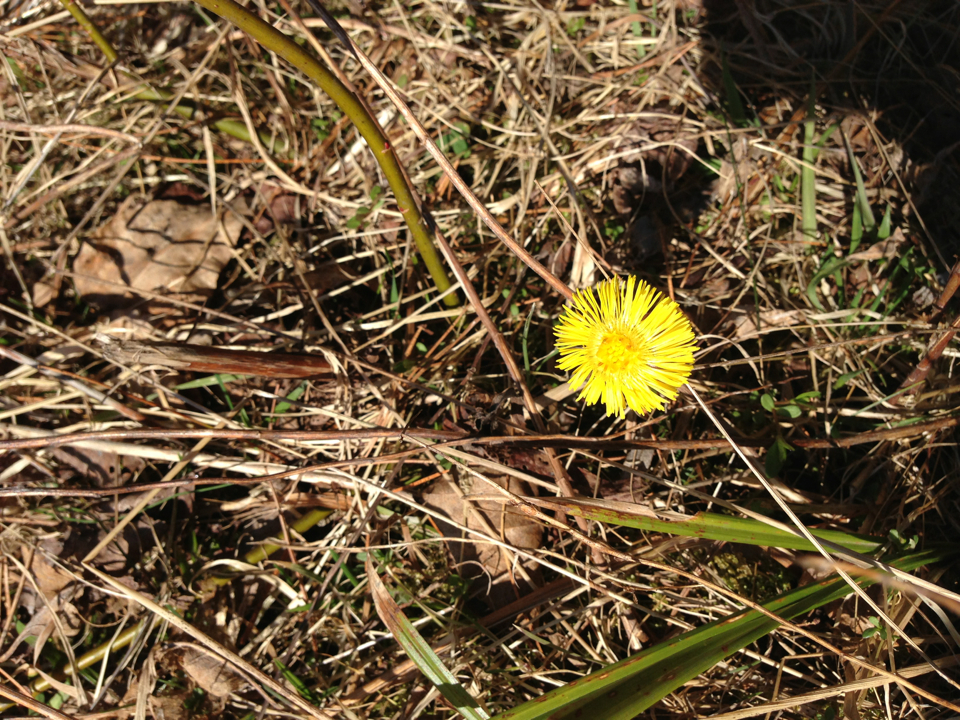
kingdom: Plantae
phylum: Tracheophyta
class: Magnoliopsida
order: Asterales
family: Asteraceae
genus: Tussilago
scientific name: Tussilago farfara
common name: Coltsfoot
